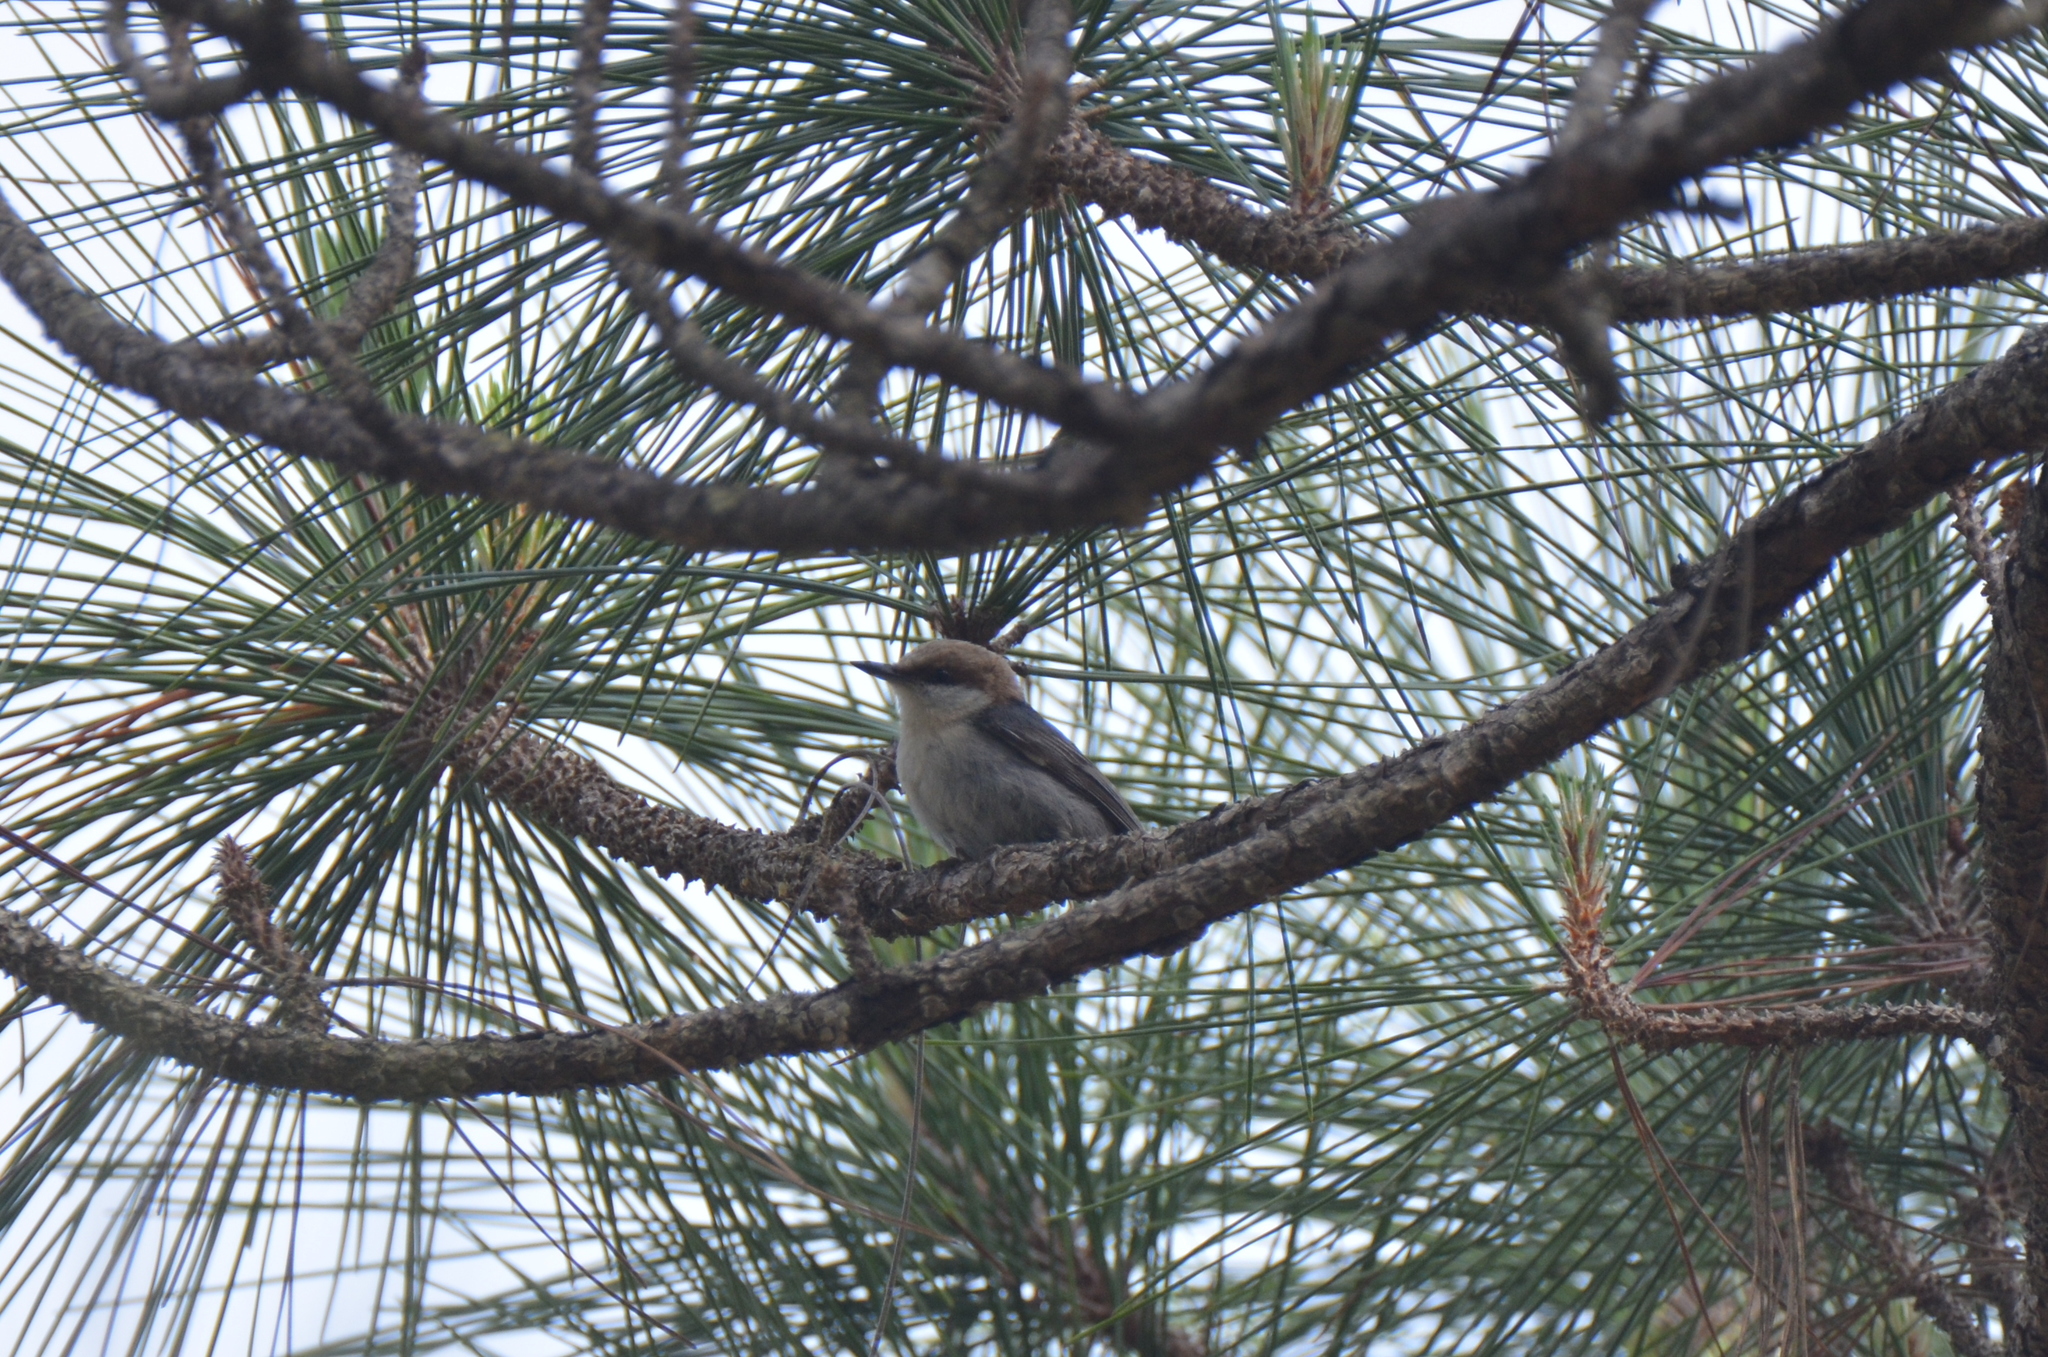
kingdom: Animalia
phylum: Chordata
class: Aves
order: Passeriformes
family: Sittidae
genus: Sitta
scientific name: Sitta pusilla
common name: Brown-headed nuthatch
